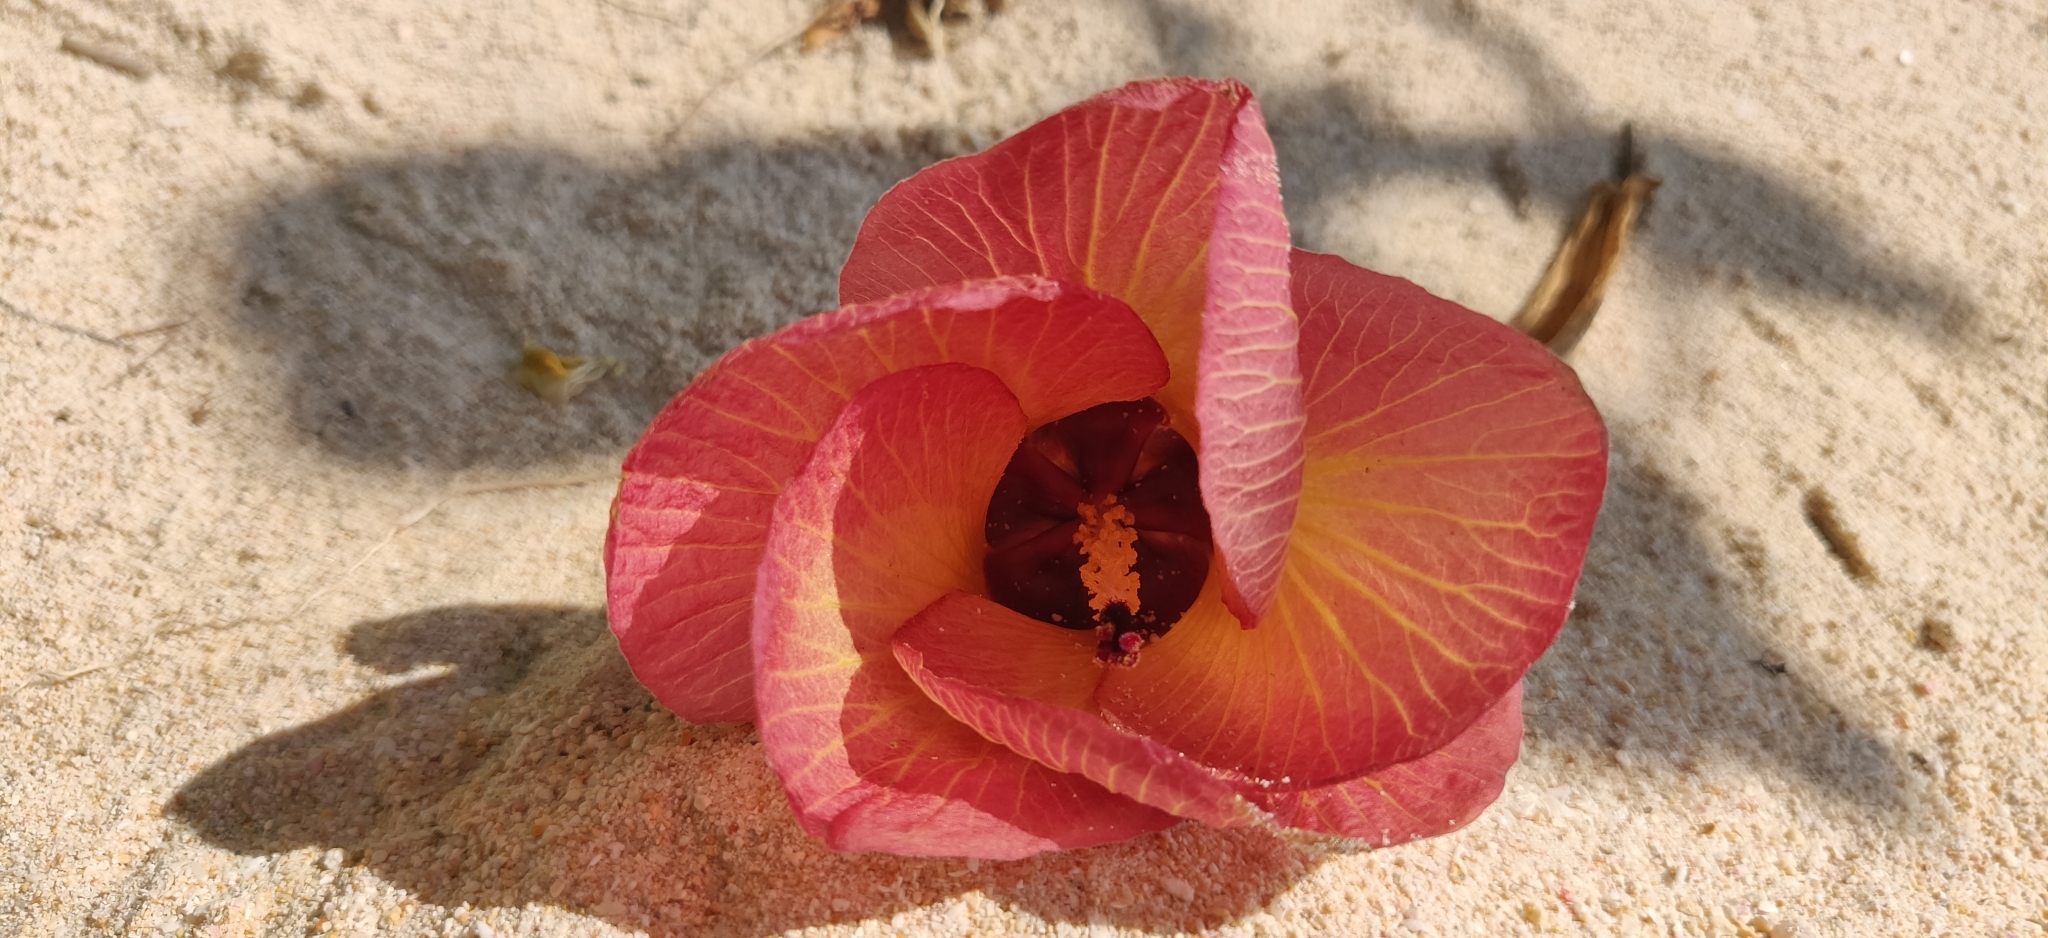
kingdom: Plantae
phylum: Tracheophyta
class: Magnoliopsida
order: Malvales
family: Malvaceae
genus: Talipariti
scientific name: Talipariti tiliaceum
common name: Sea hibiscus
